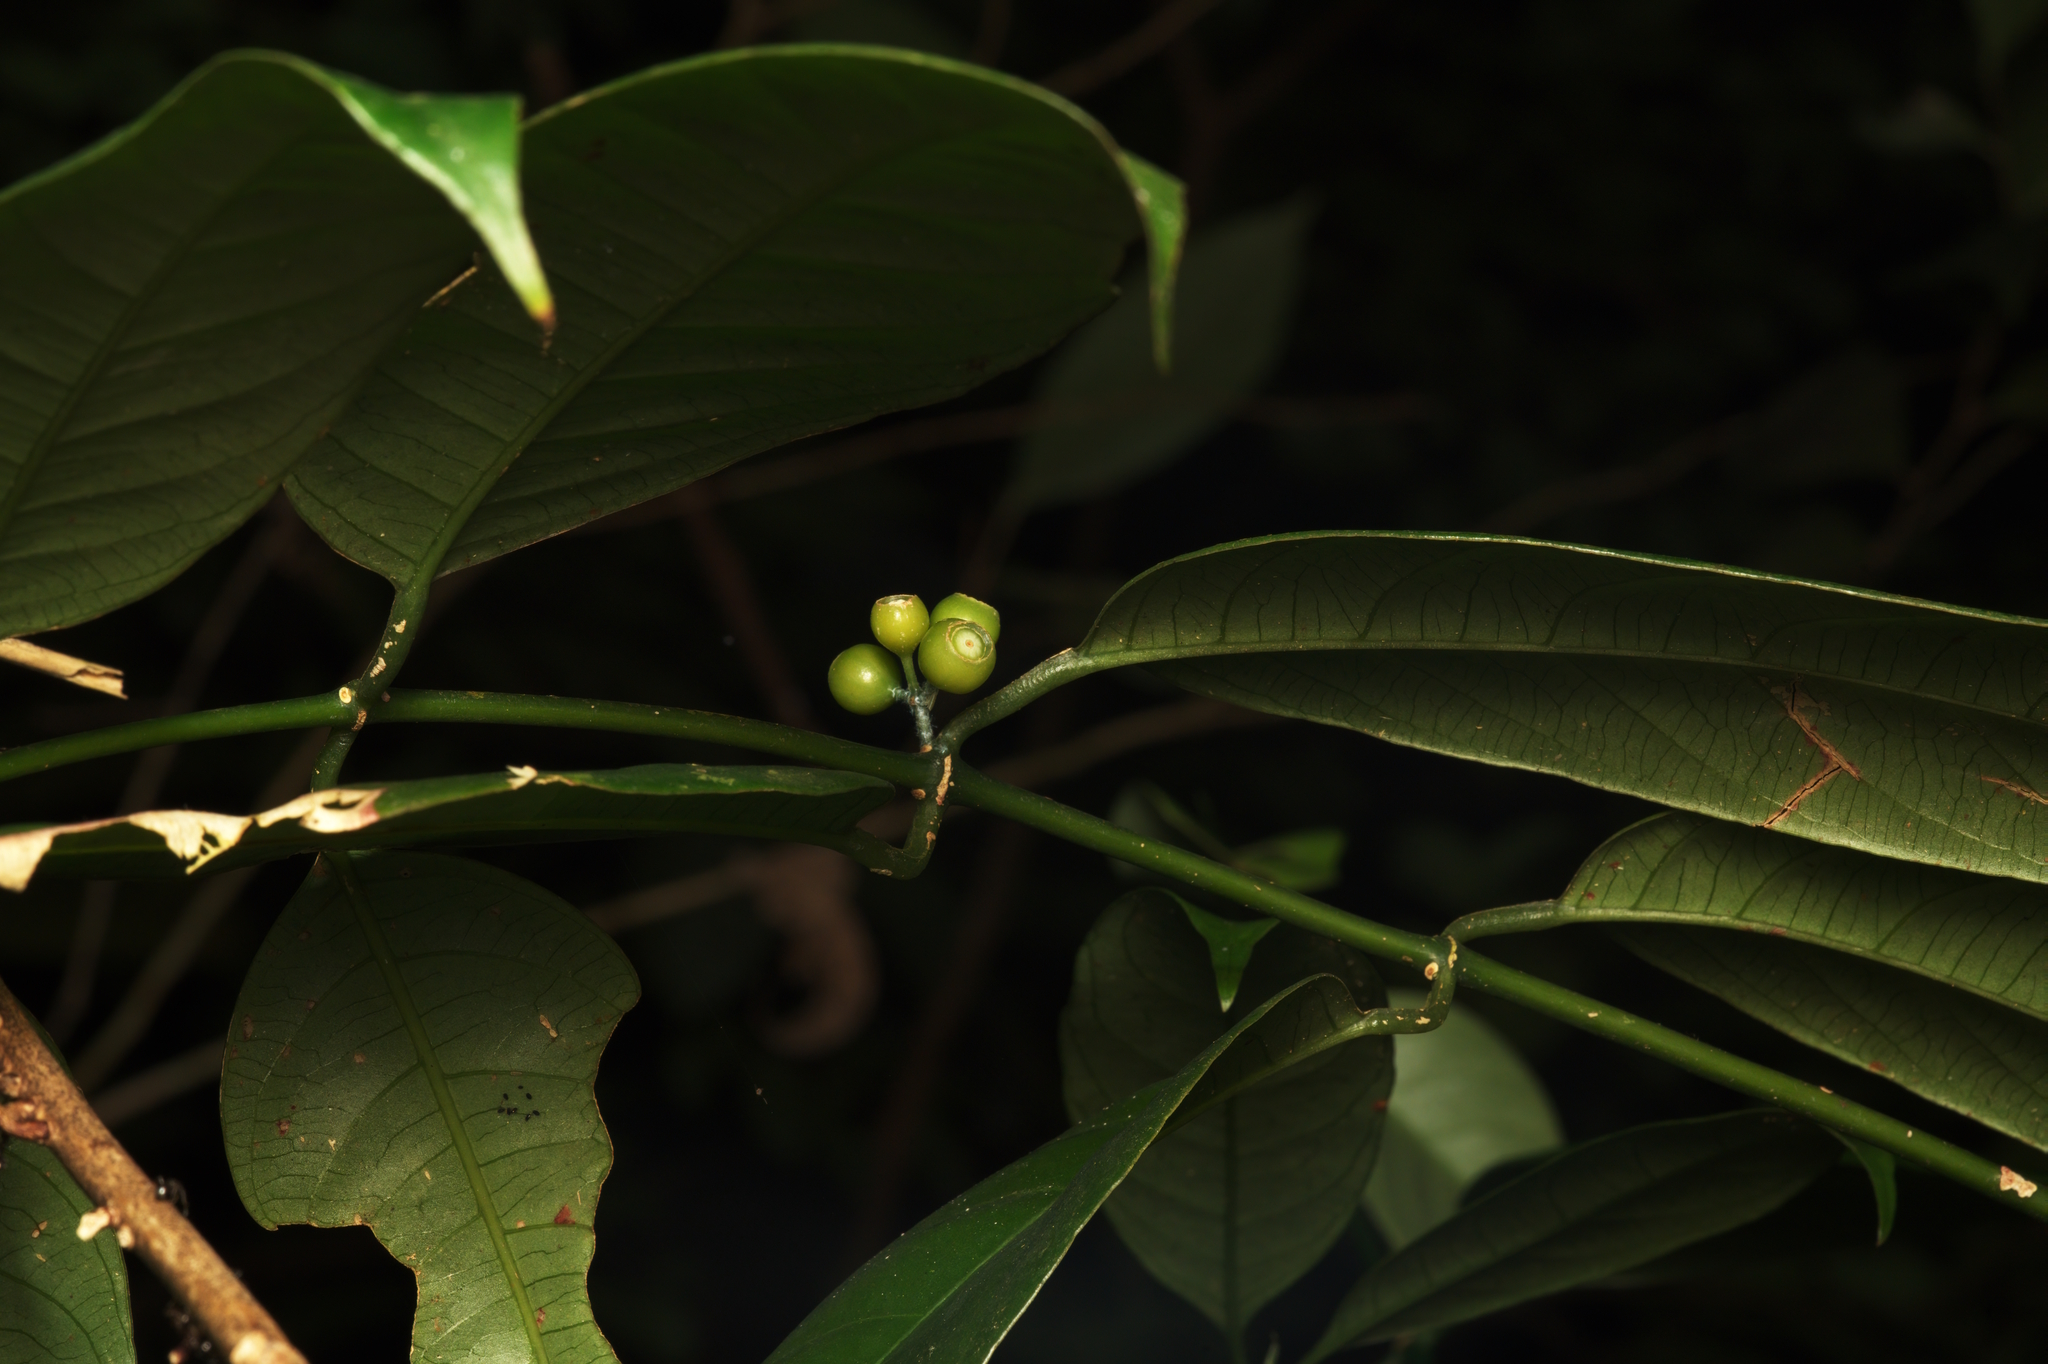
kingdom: Plantae
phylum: Tracheophyta
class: Magnoliopsida
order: Gentianales
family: Rubiaceae
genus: Urophyllum
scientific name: Urophyllum arboreum
